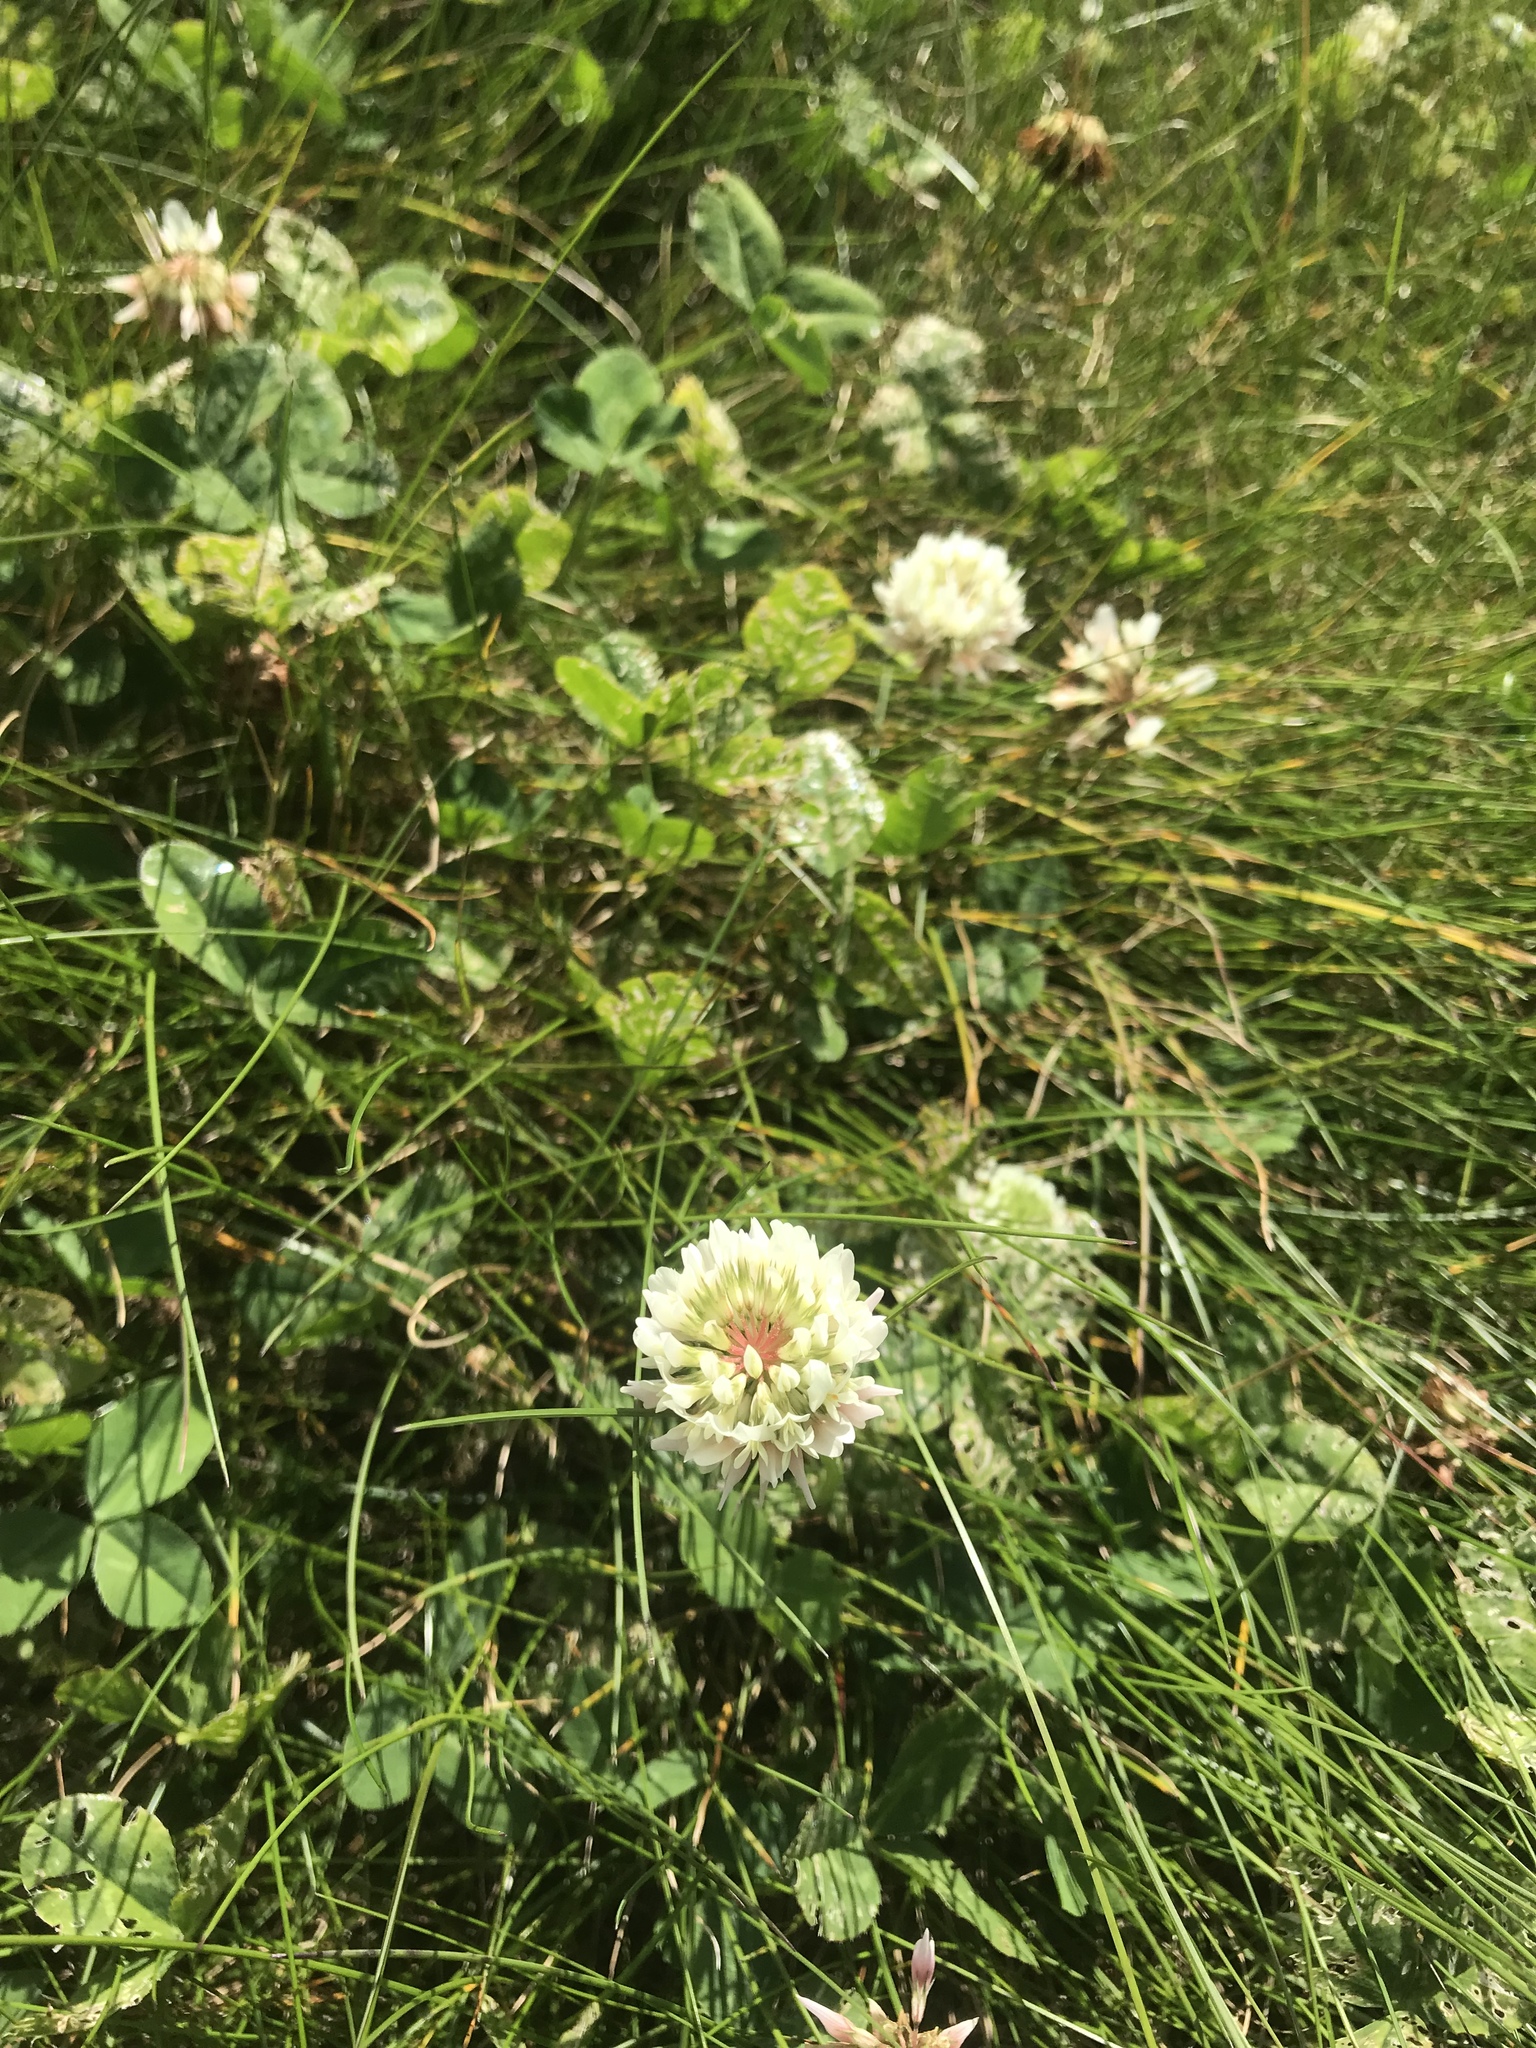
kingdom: Plantae
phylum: Tracheophyta
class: Magnoliopsida
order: Fabales
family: Fabaceae
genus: Trifolium
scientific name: Trifolium repens
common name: White clover
